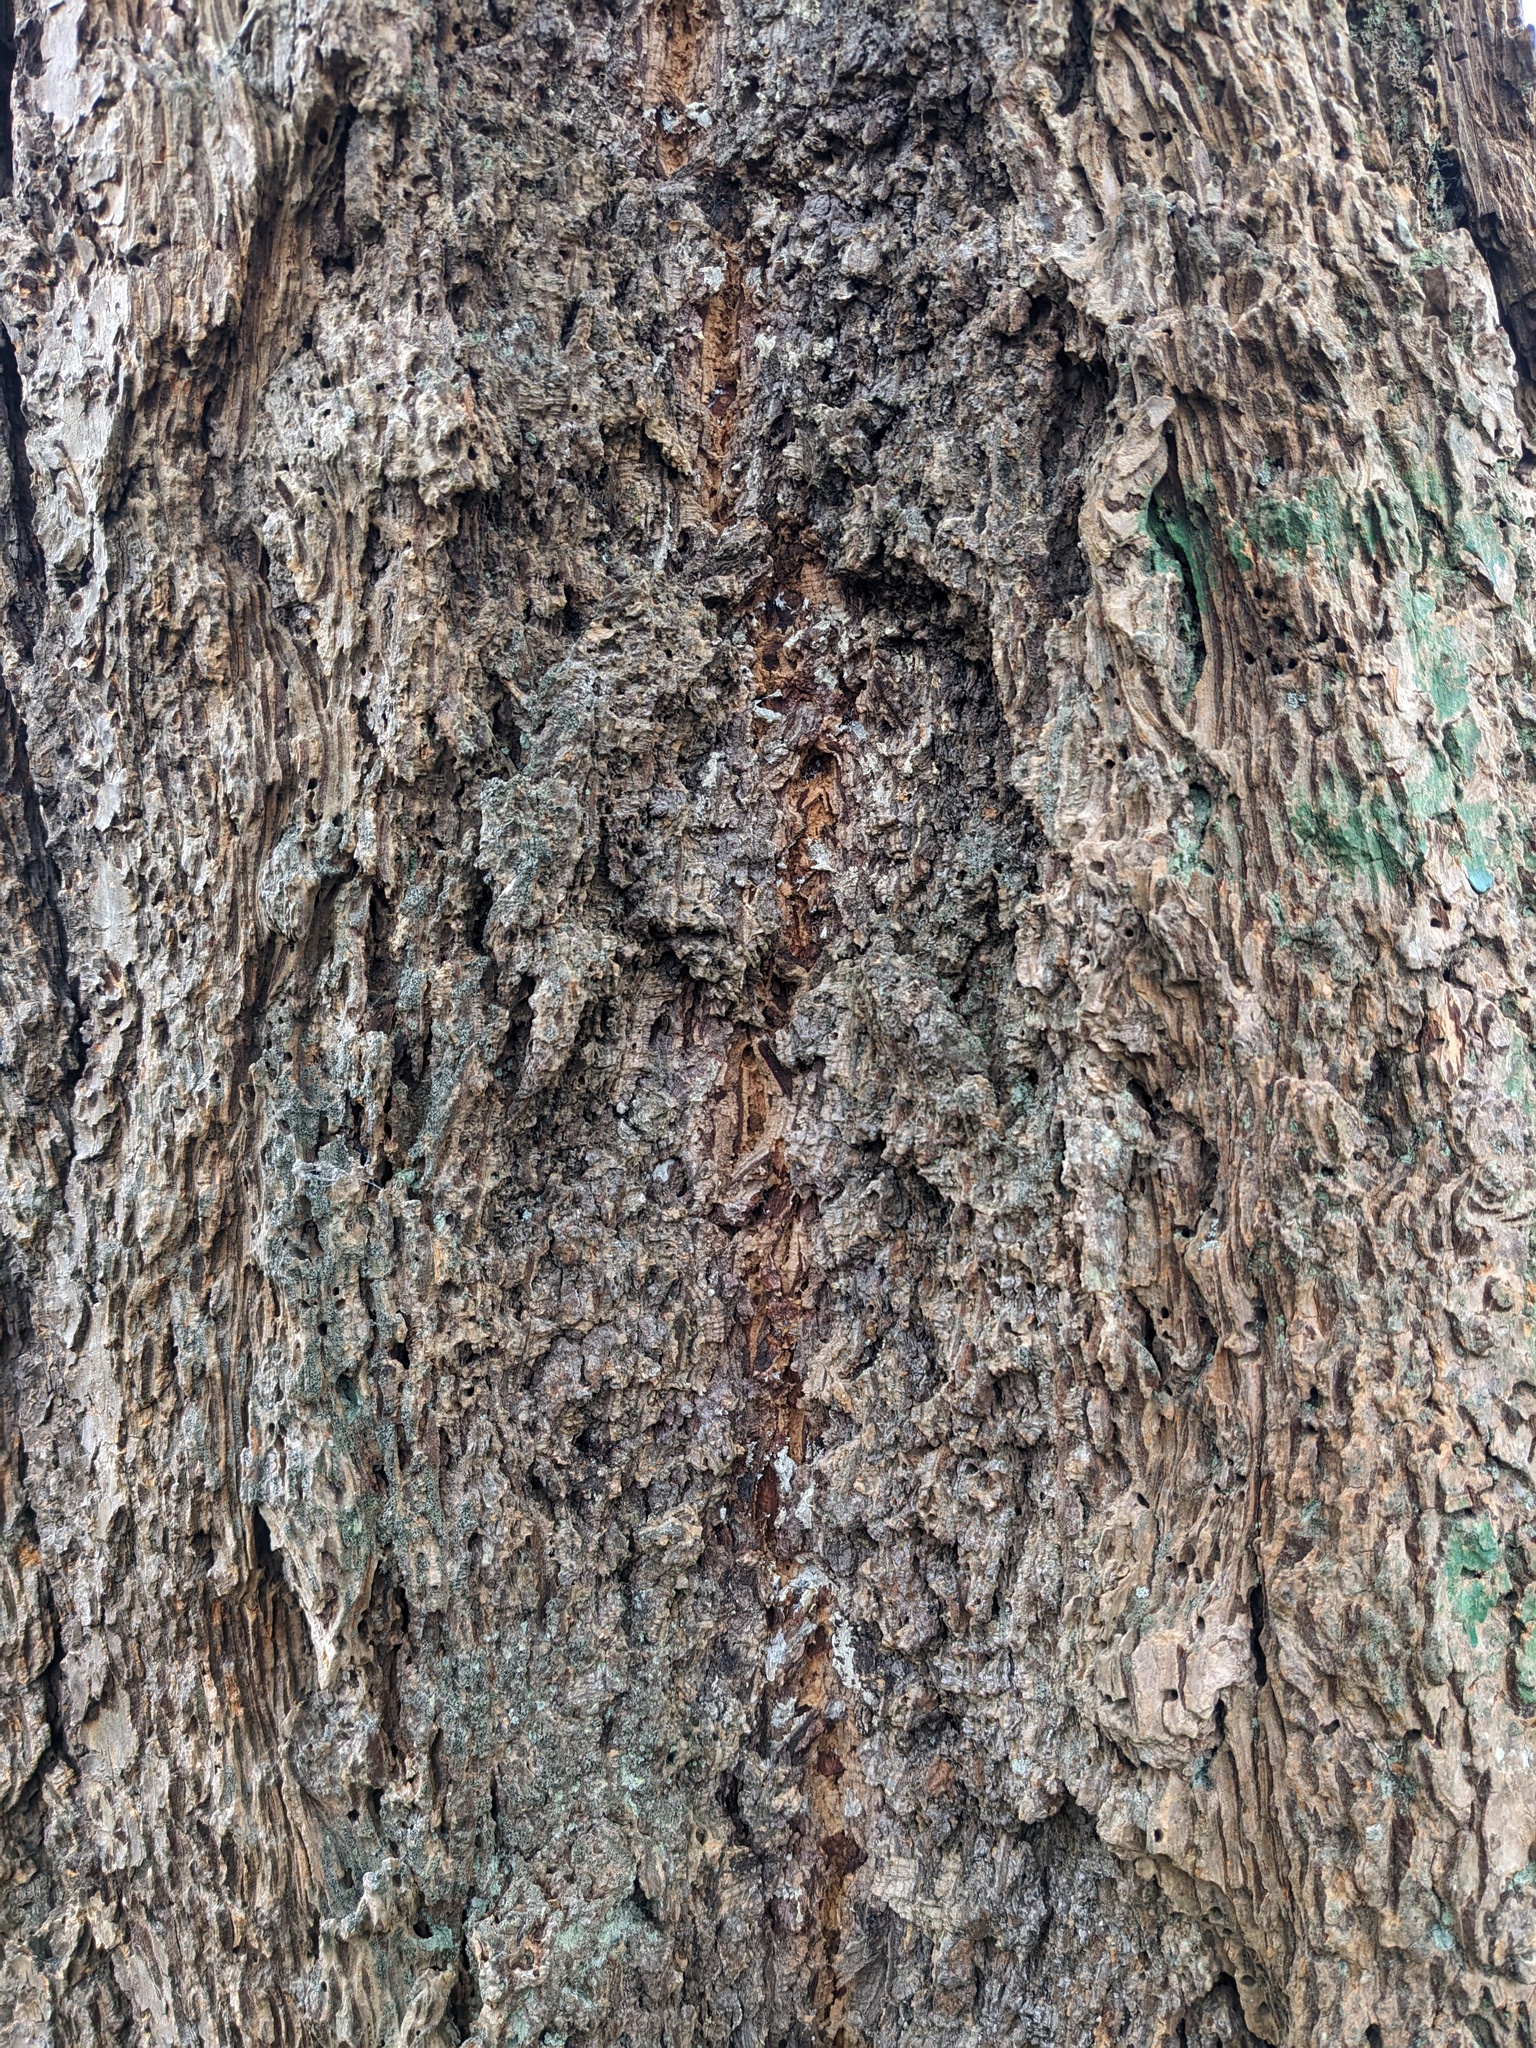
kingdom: Plantae
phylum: Tracheophyta
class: Pinopsida
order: Pinales
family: Pinaceae
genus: Pseudotsuga
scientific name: Pseudotsuga menziesii
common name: Douglas fir
